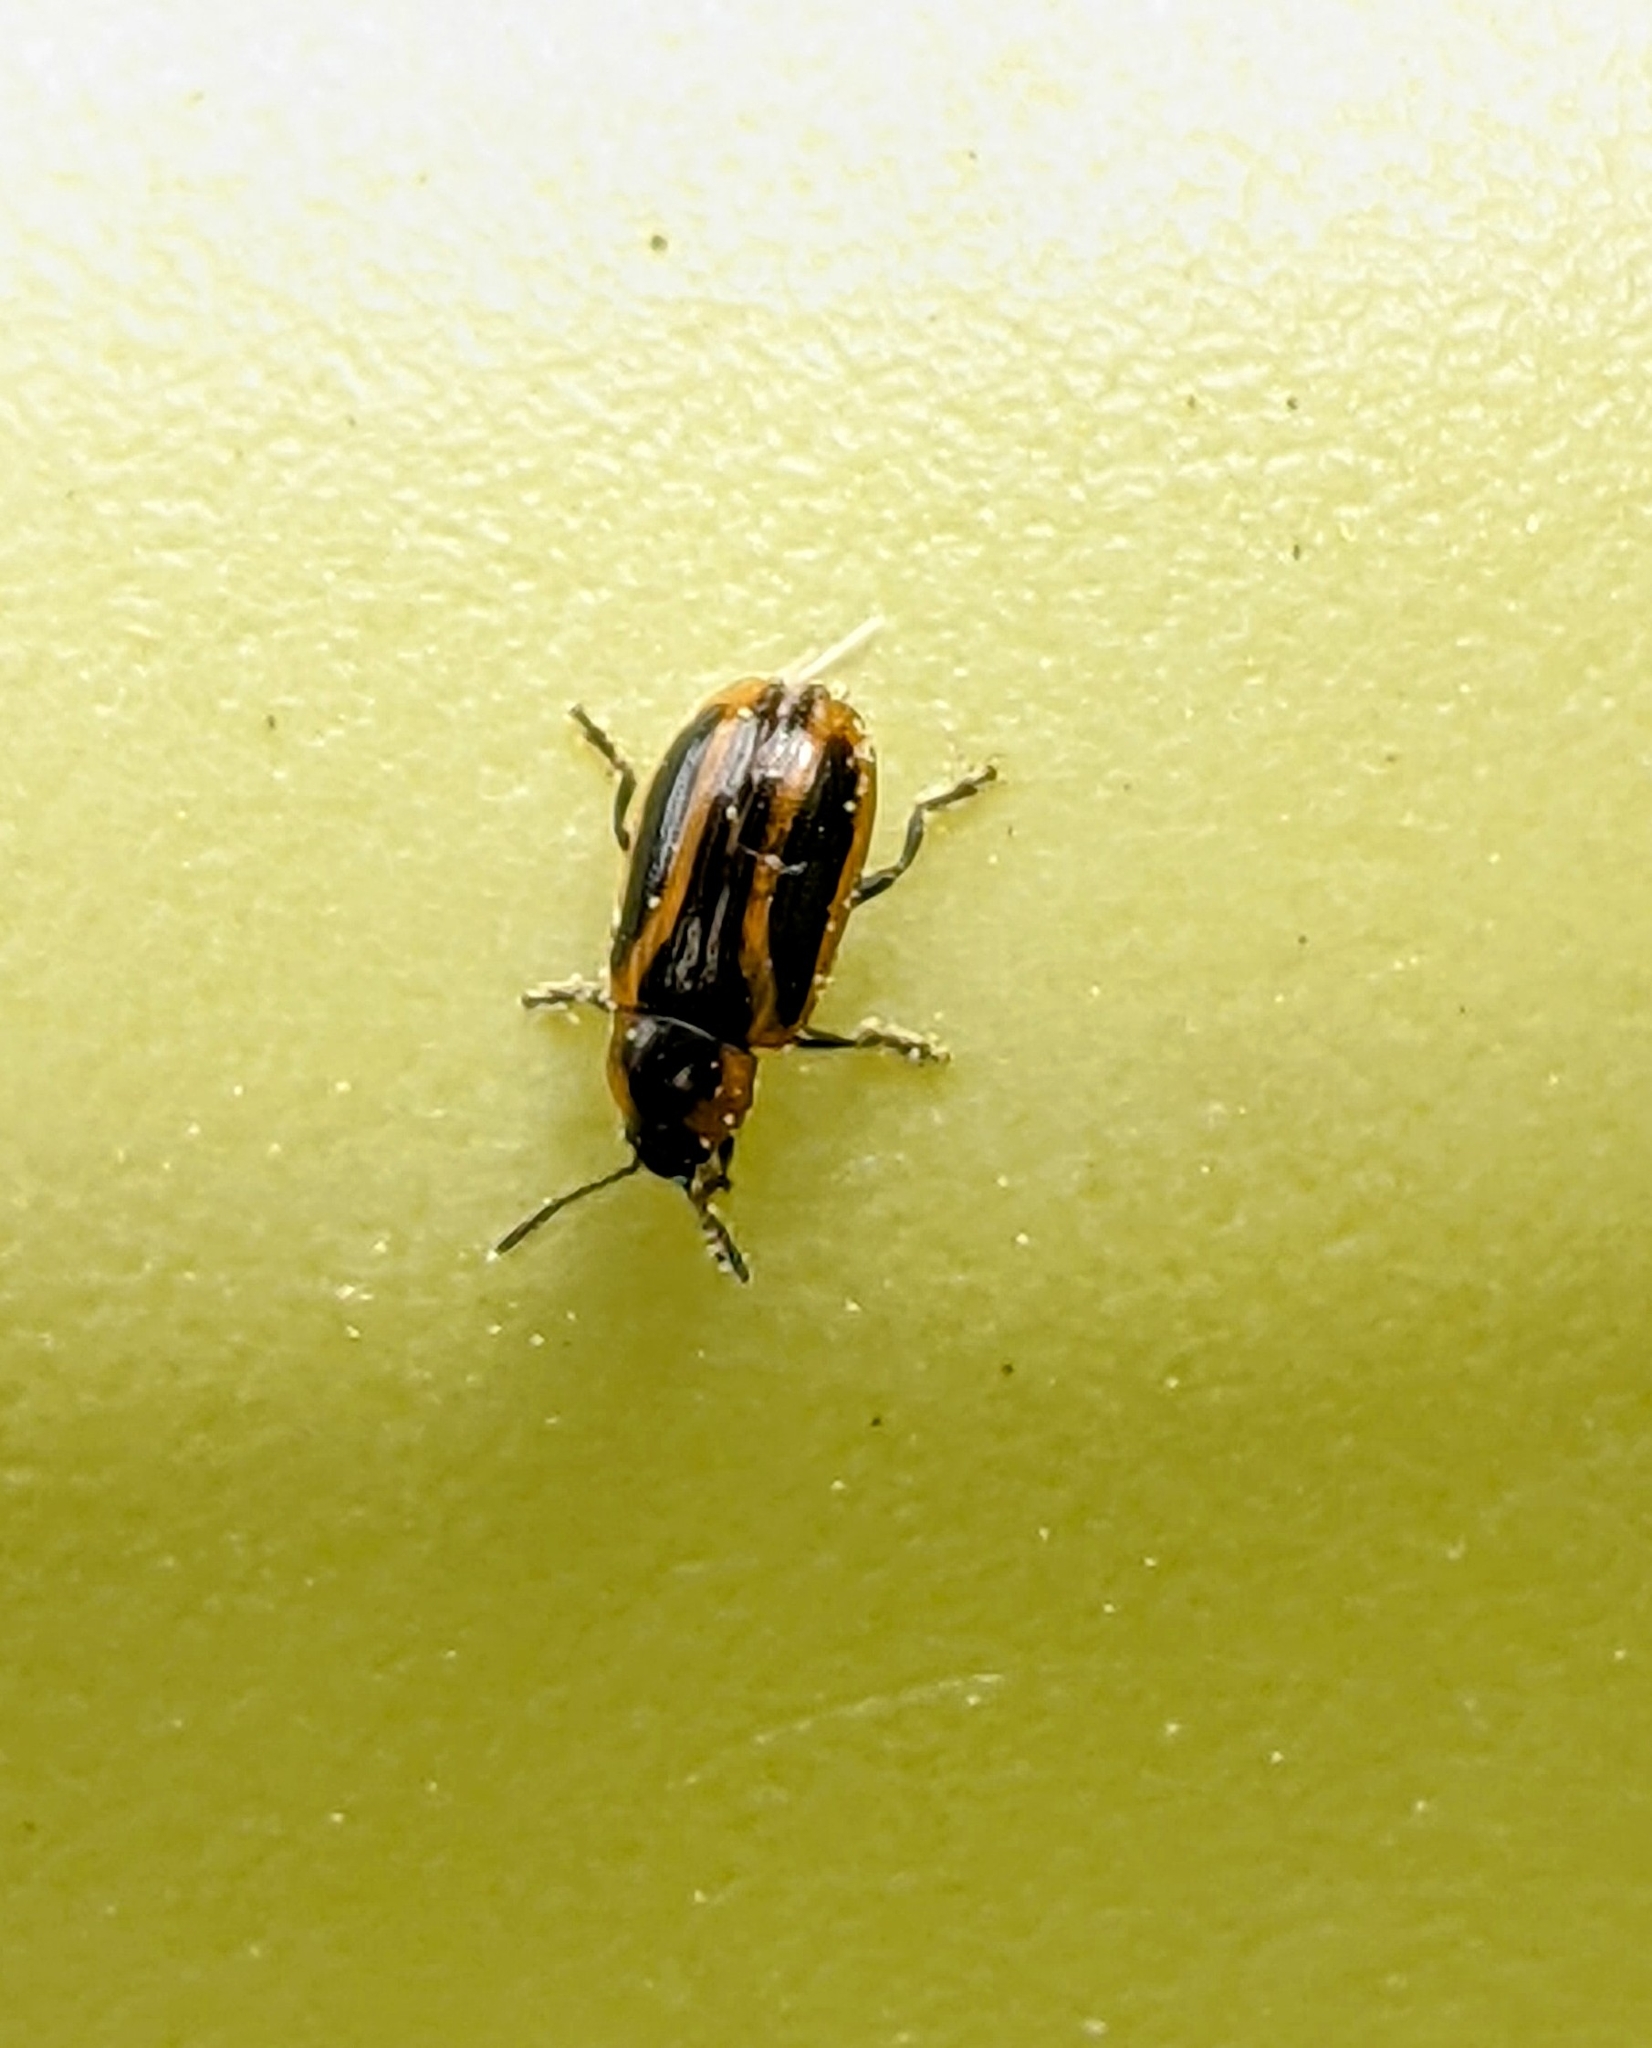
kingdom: Animalia
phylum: Arthropoda
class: Insecta
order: Coleoptera
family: Chrysomelidae
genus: Prasocuris
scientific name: Prasocuris vittata
